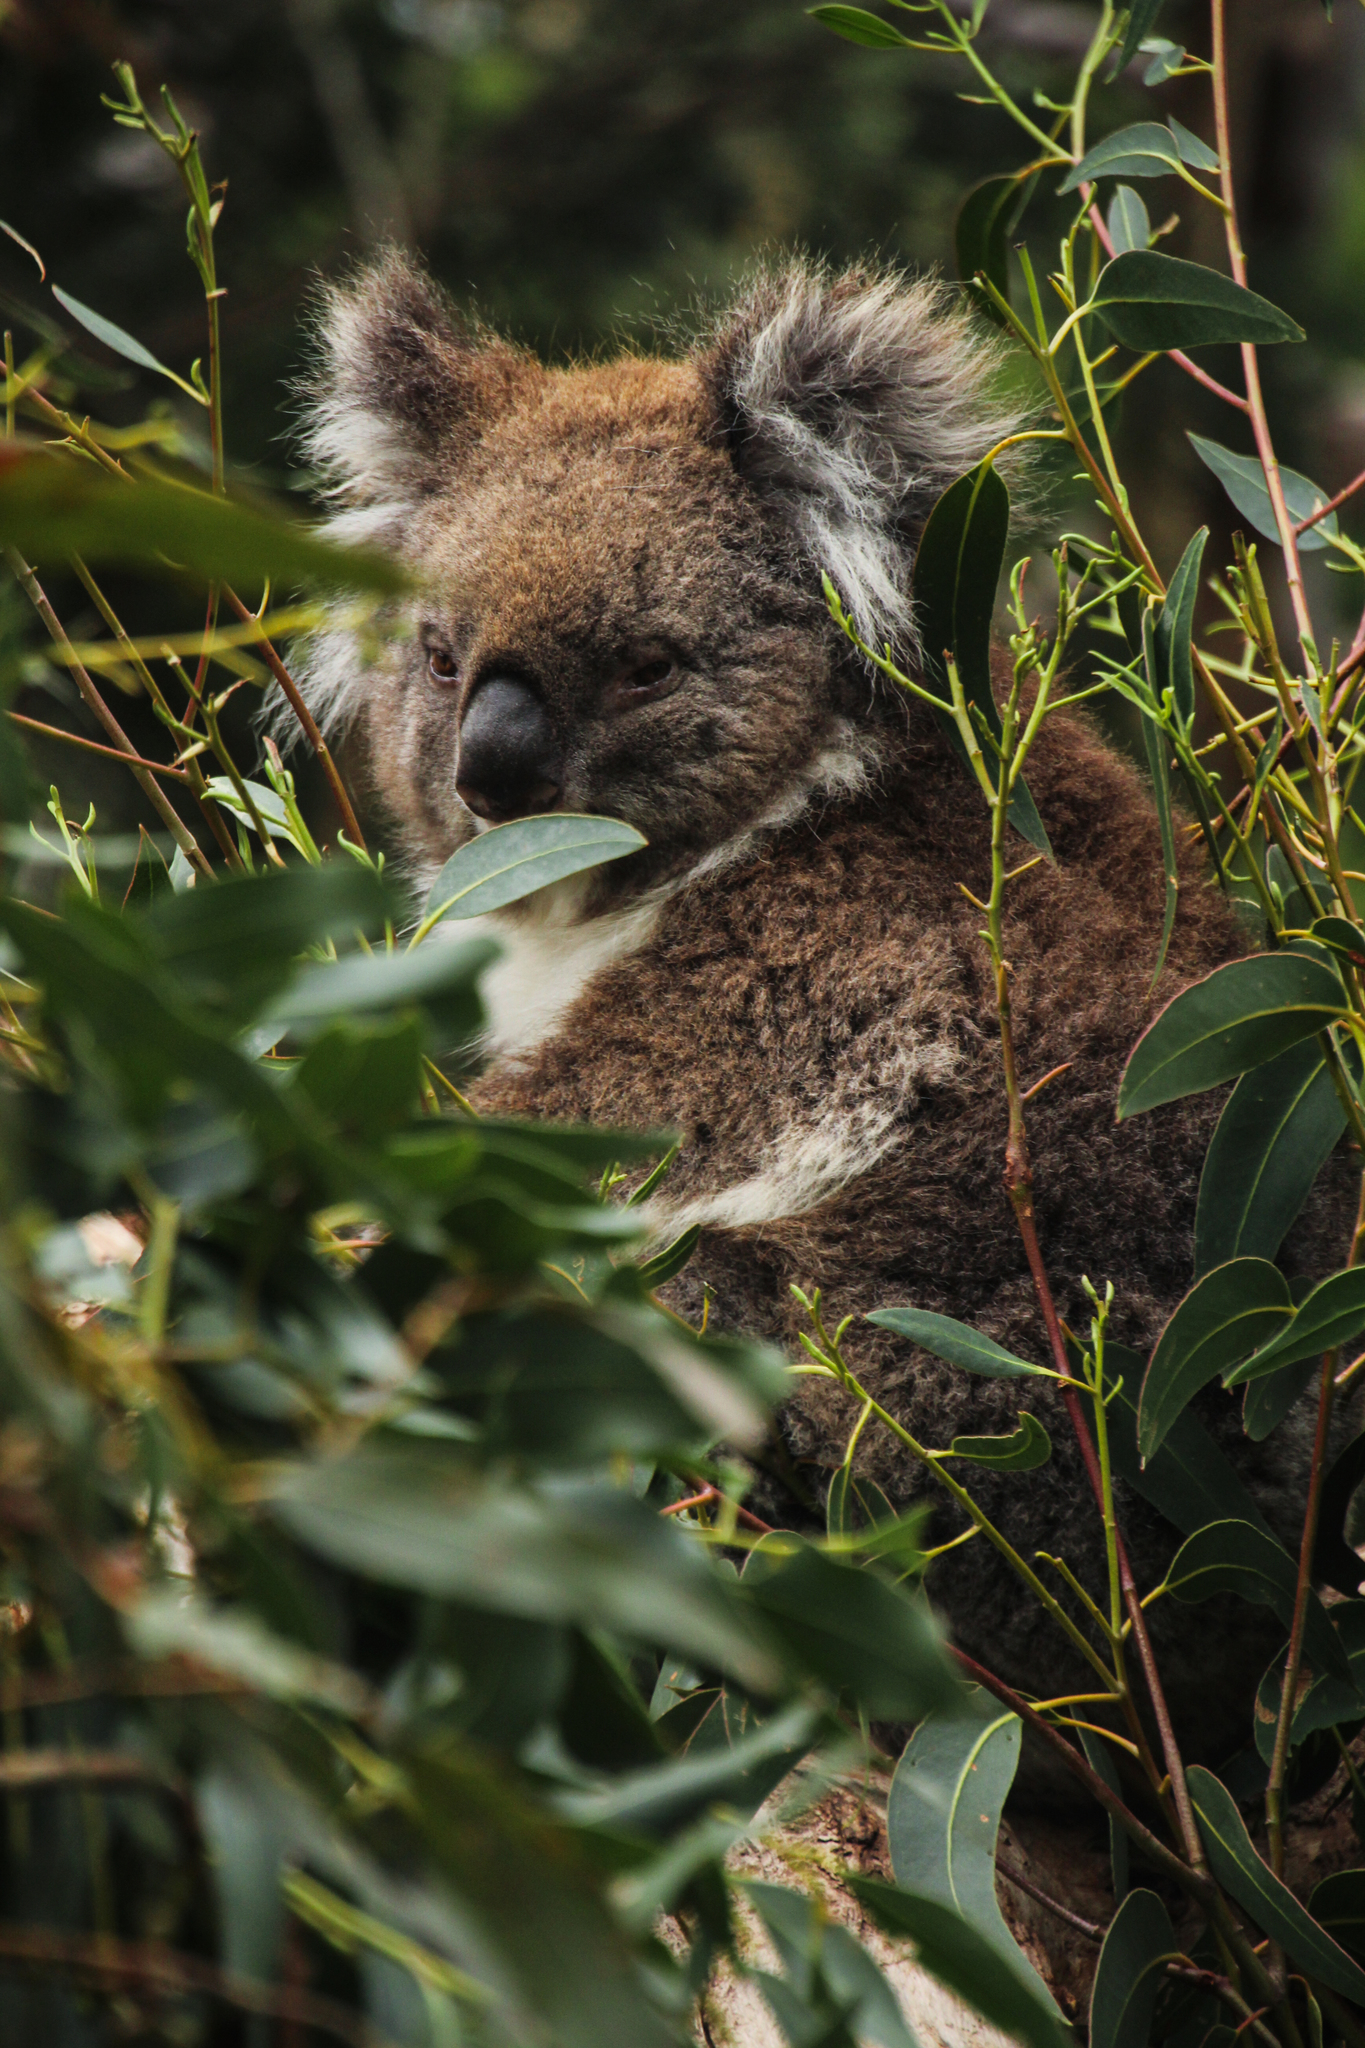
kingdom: Animalia
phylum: Chordata
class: Mammalia
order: Diprotodontia
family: Phascolarctidae
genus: Phascolarctos
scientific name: Phascolarctos cinereus
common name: Koala
